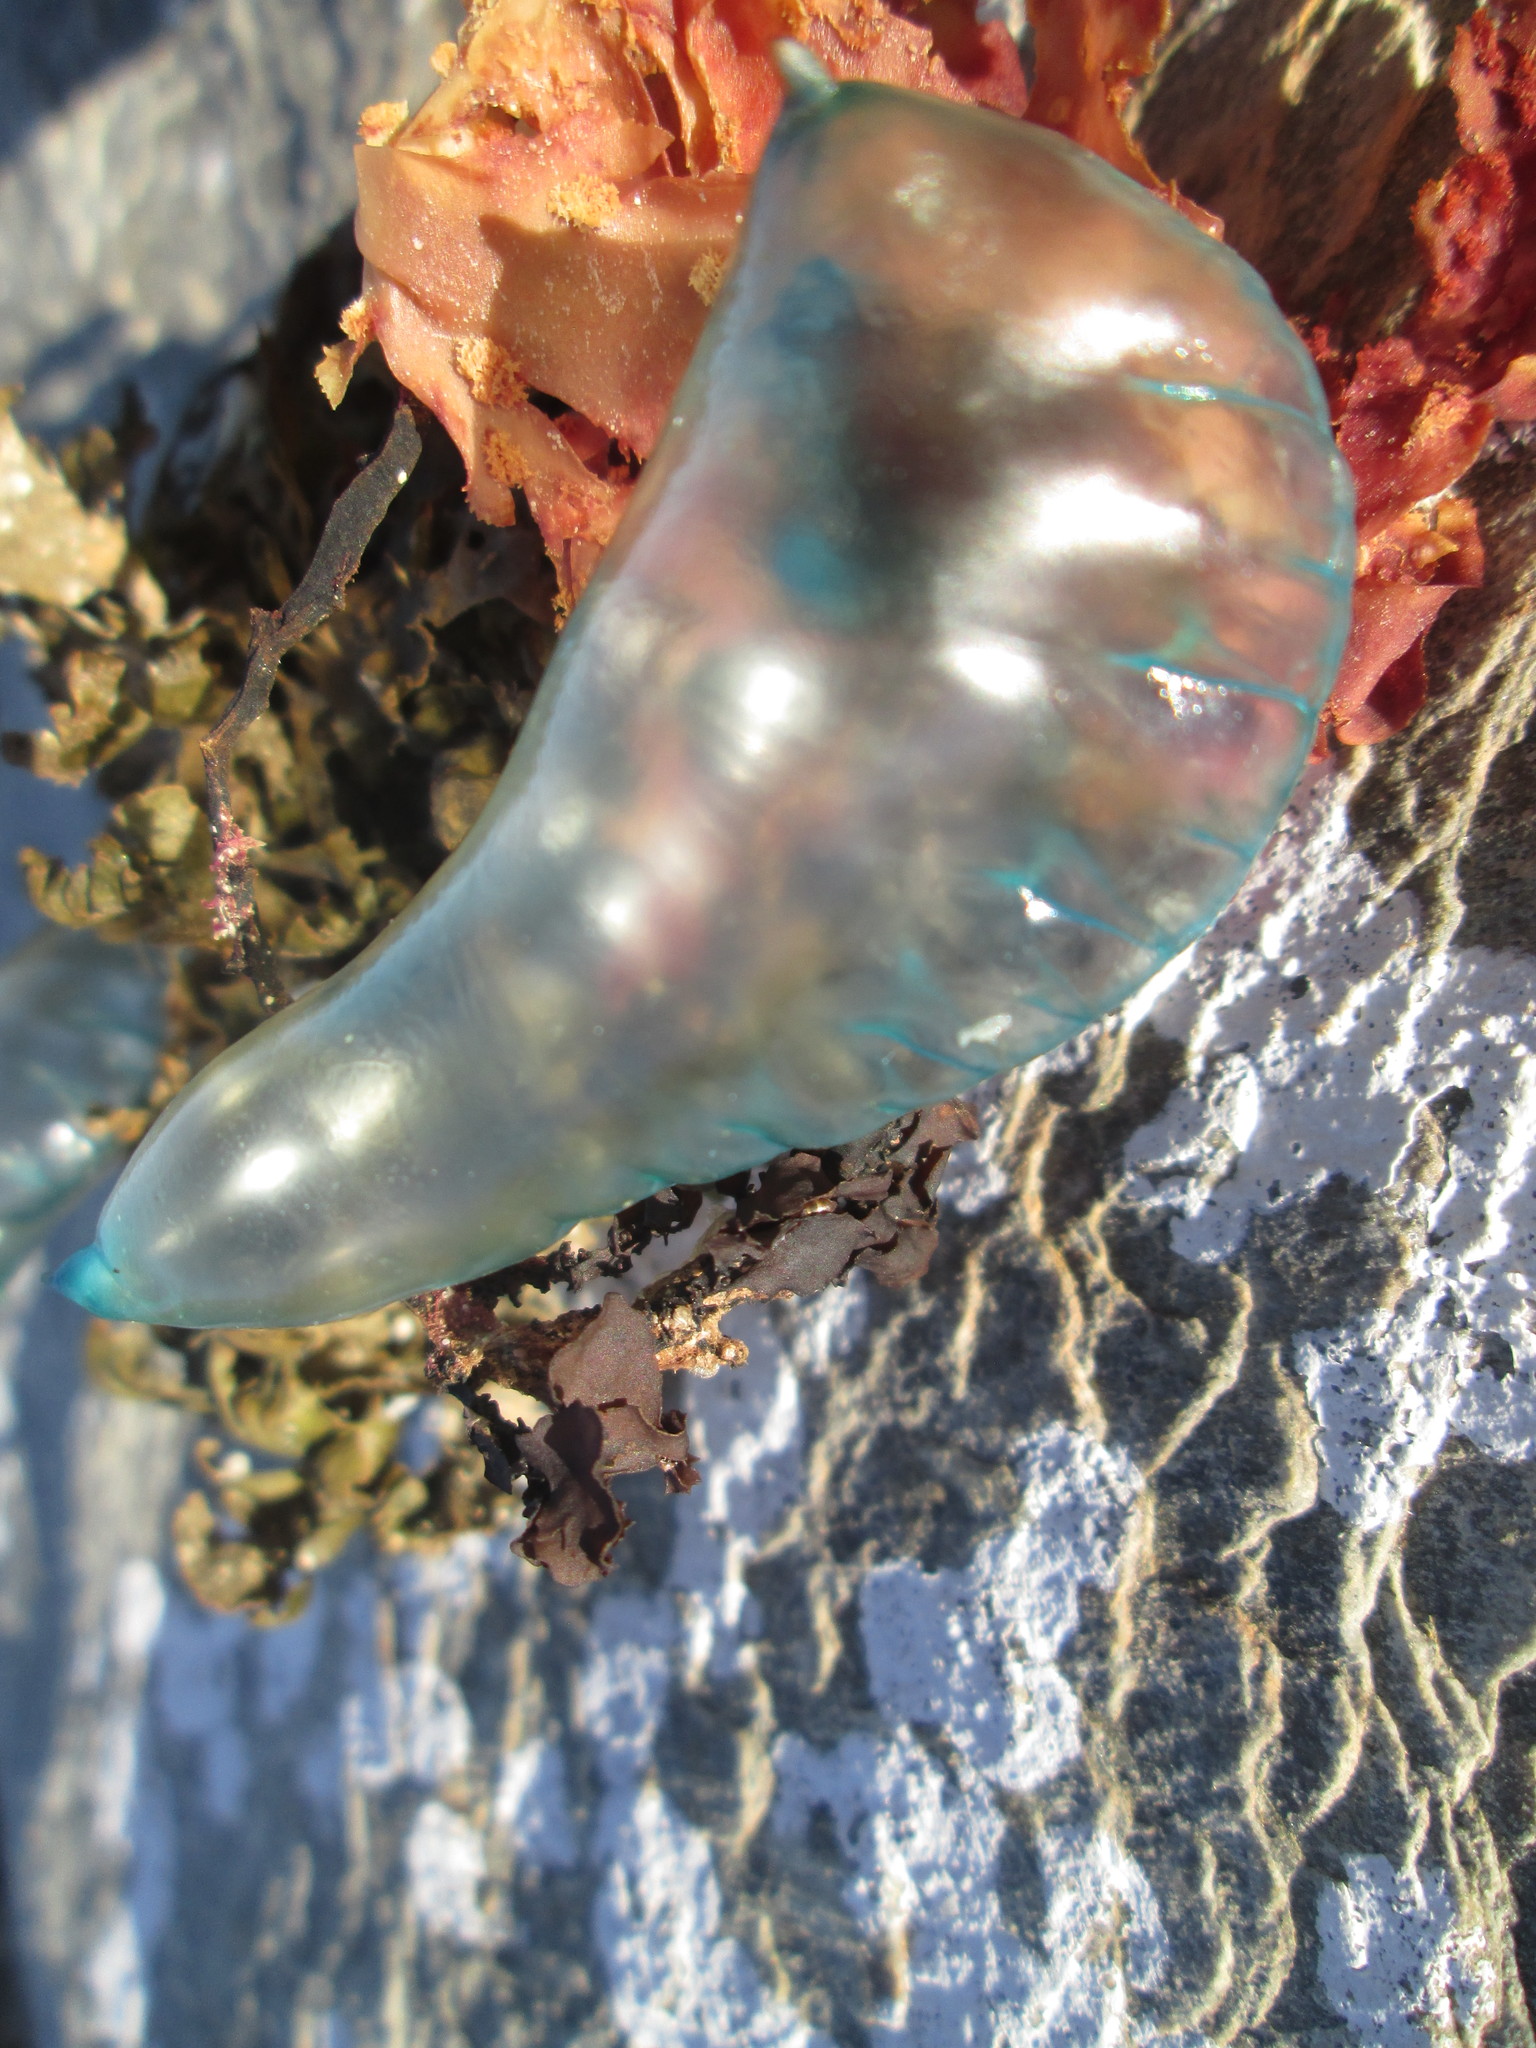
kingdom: Animalia
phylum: Cnidaria
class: Hydrozoa
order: Siphonophorae
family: Physaliidae
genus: Physalia
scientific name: Physalia physalis
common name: Portuguese man-of-war
